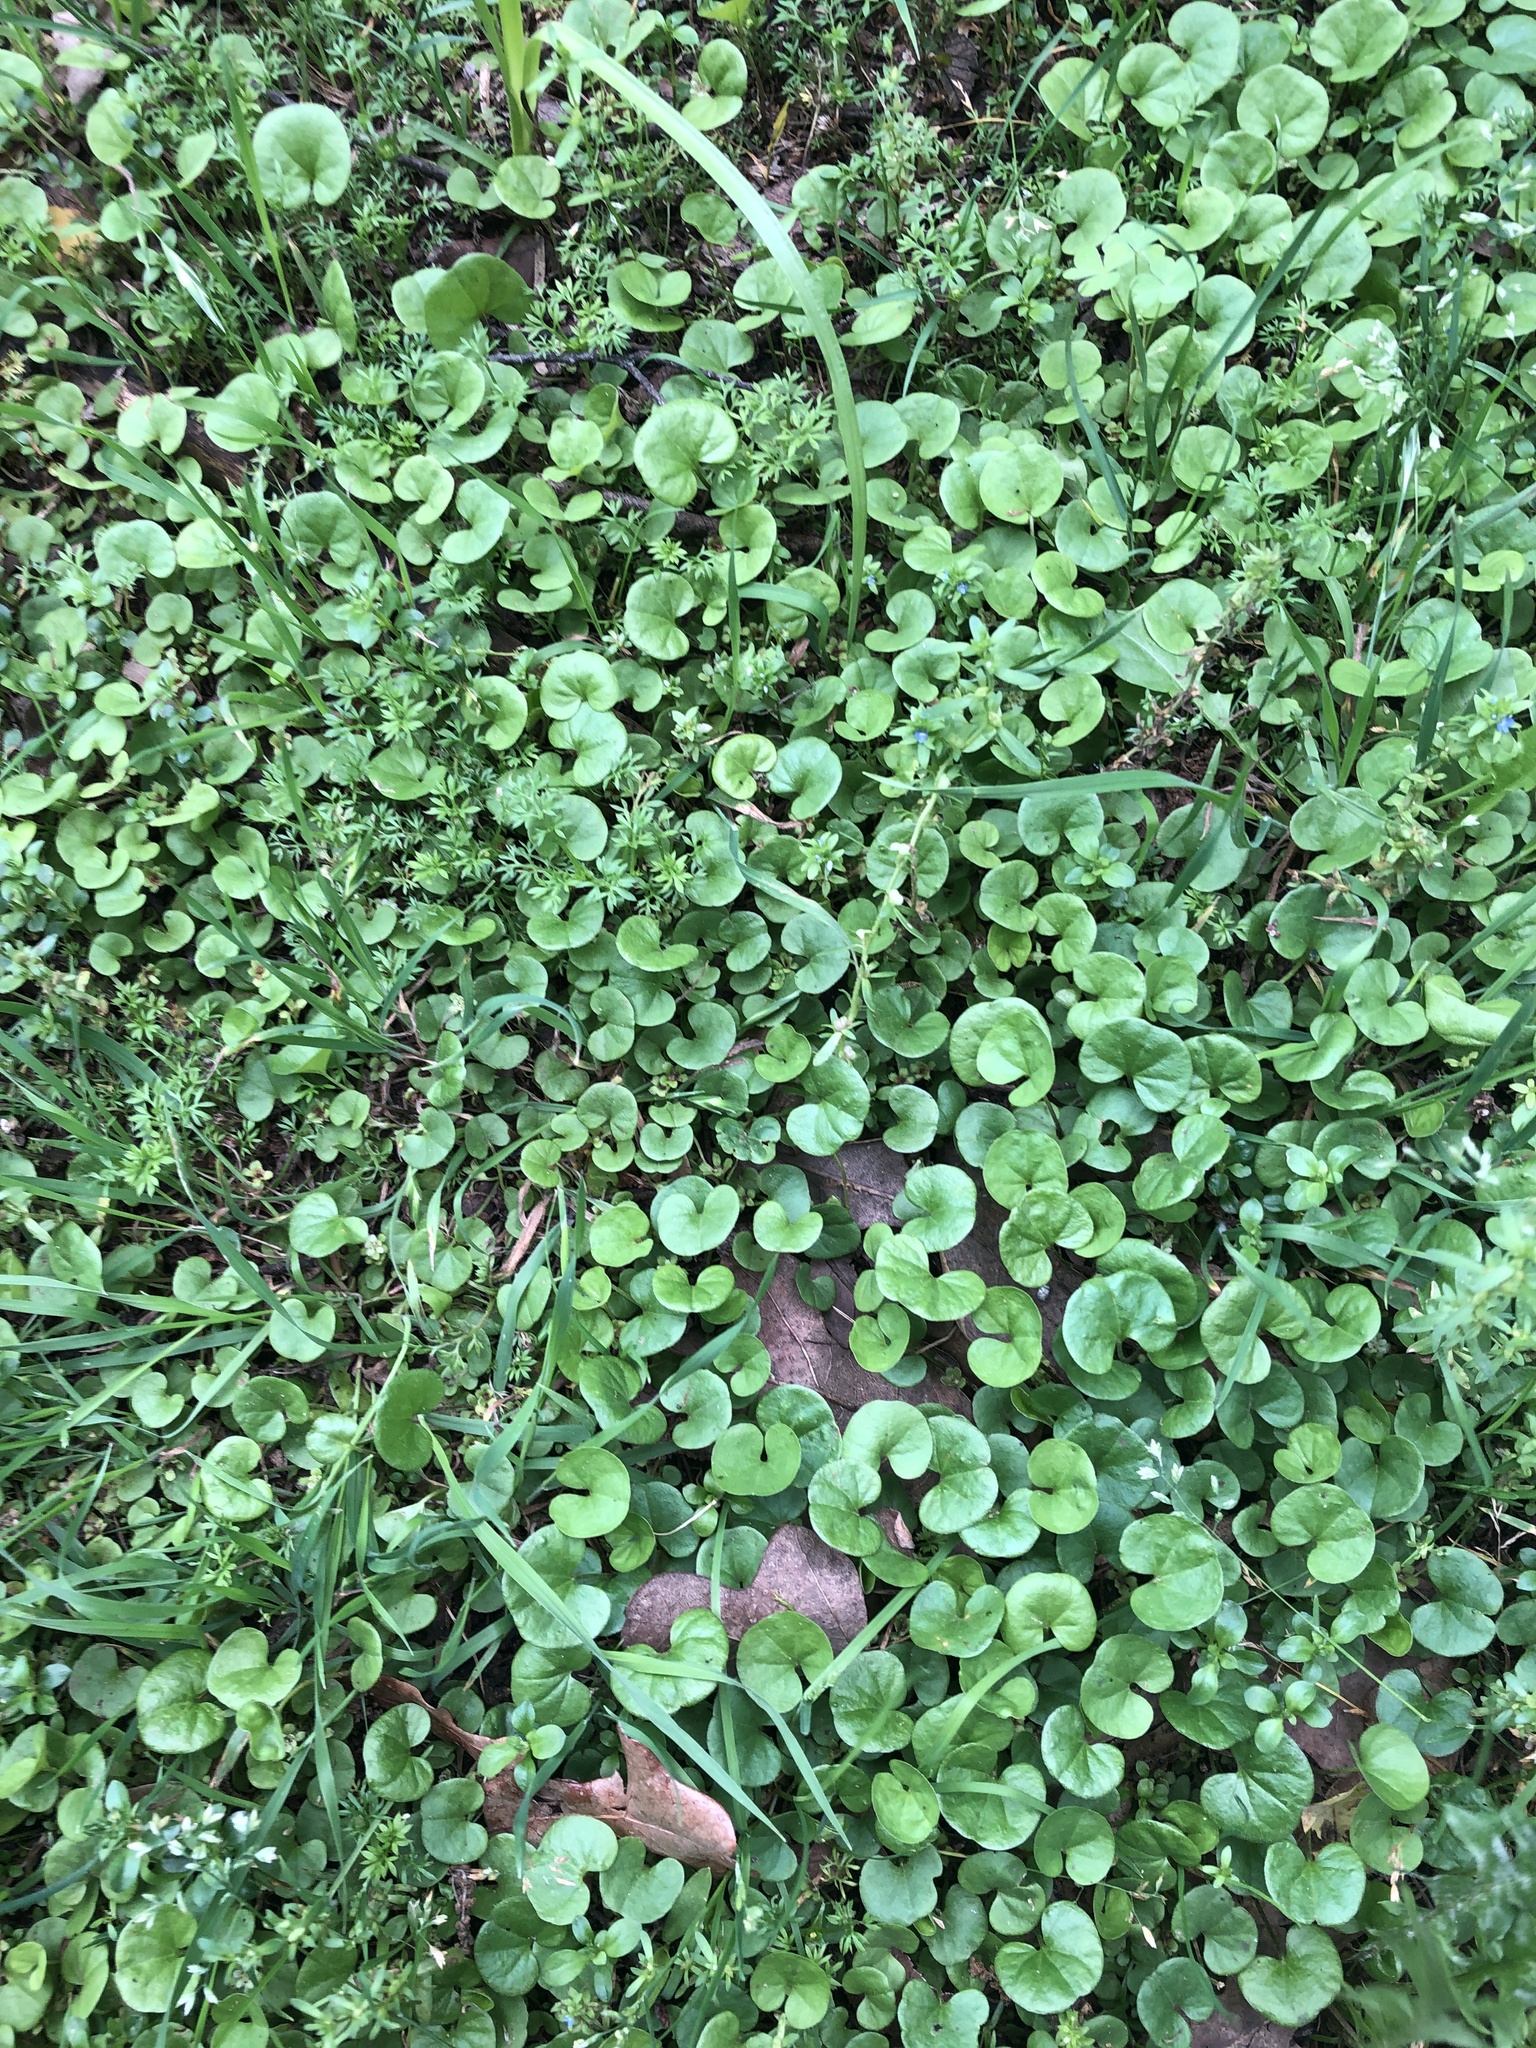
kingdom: Plantae
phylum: Tracheophyta
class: Magnoliopsida
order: Solanales
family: Convolvulaceae
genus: Dichondra
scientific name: Dichondra carolinensis
